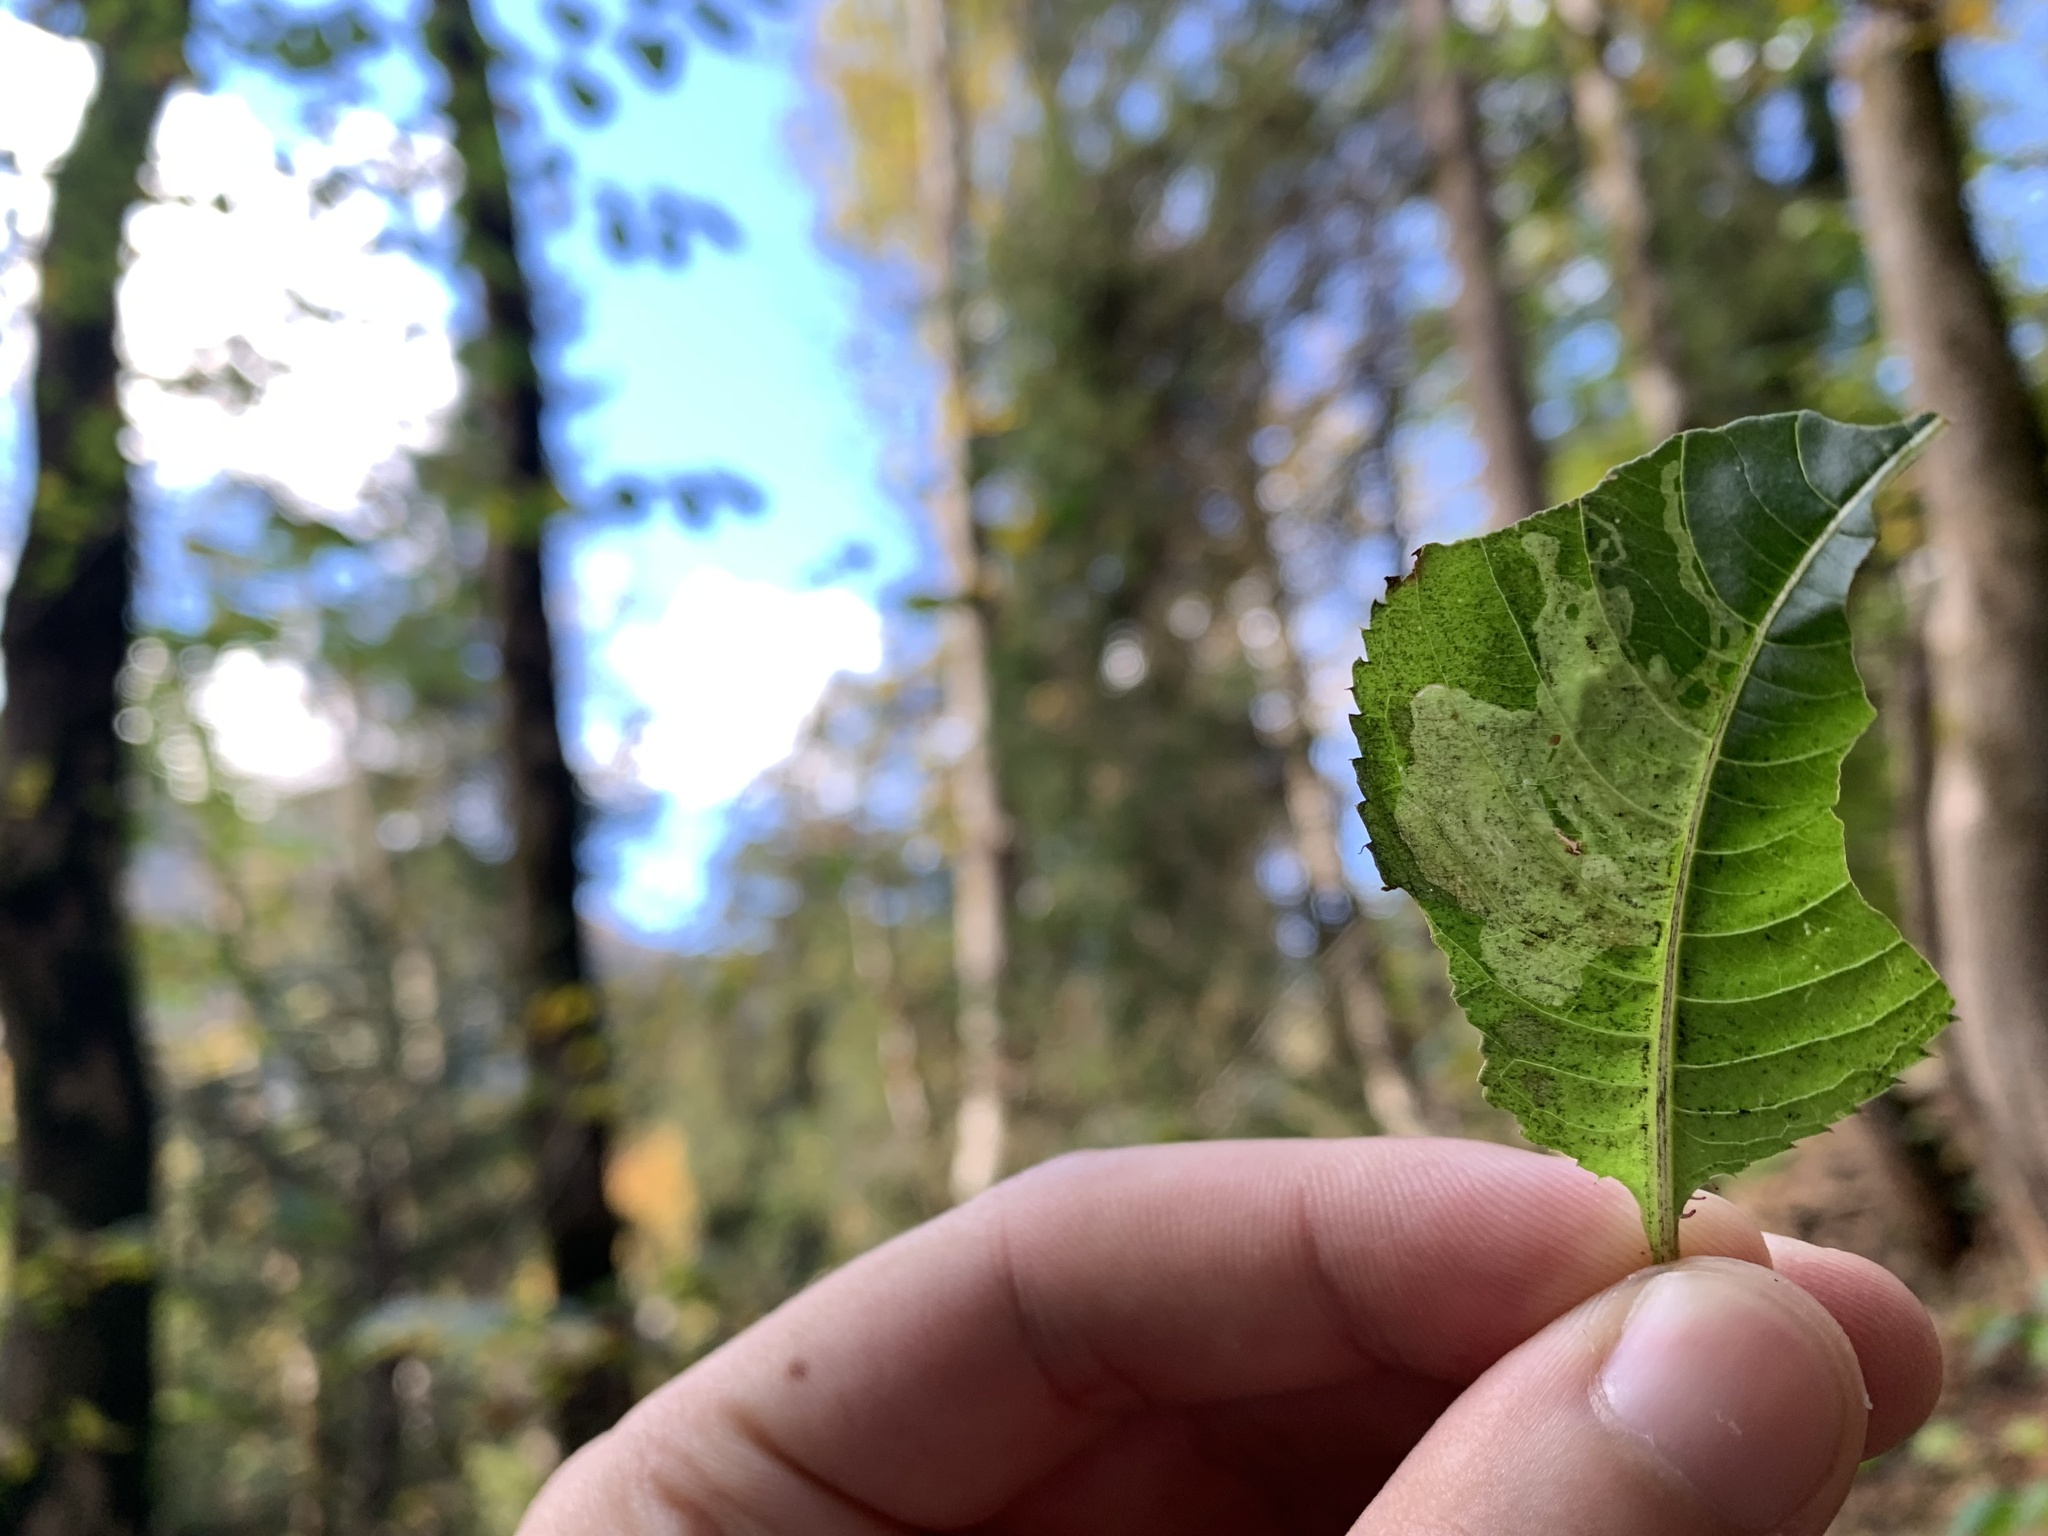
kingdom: Animalia
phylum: Arthropoda
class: Insecta
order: Diptera
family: Agromyzidae
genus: Phytoliriomyza
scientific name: Phytoliriomyza melampyga
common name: Jewelweed leaf-miner fly
